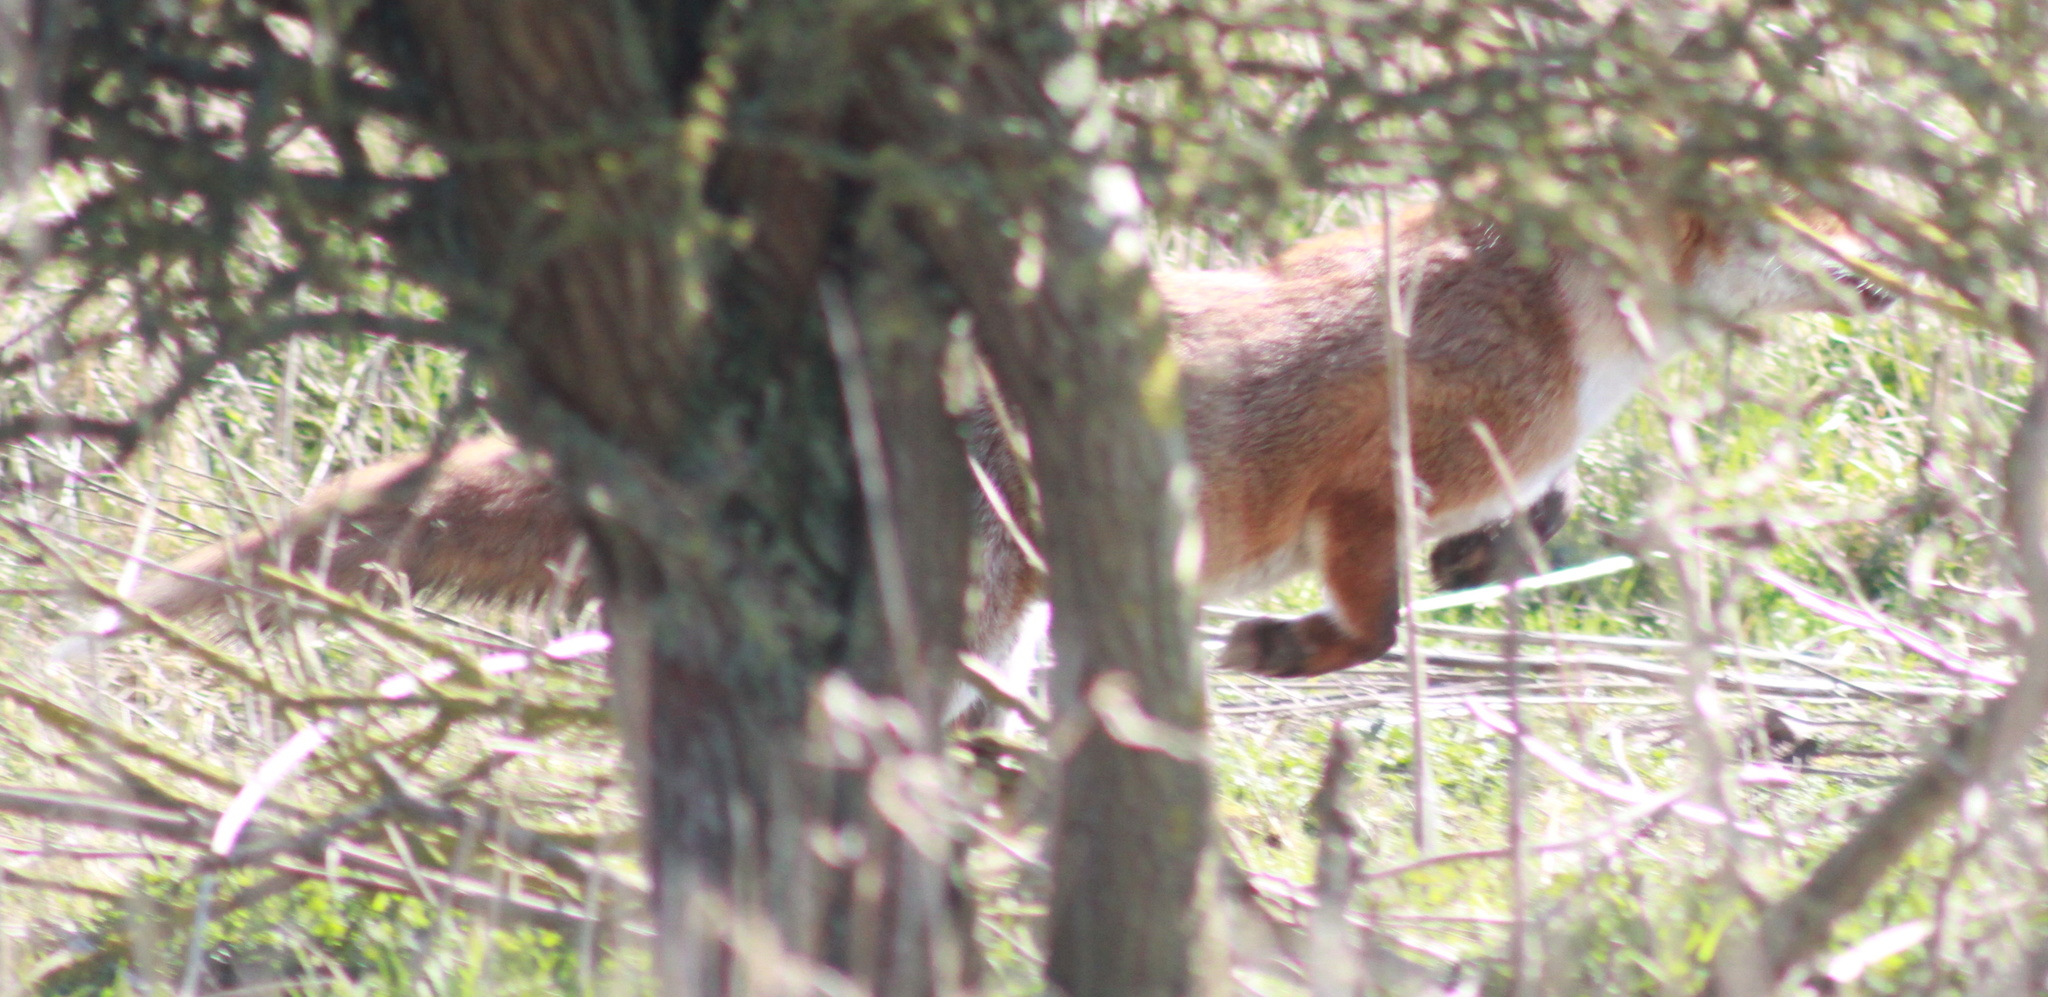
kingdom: Animalia
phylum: Chordata
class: Mammalia
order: Carnivora
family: Canidae
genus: Vulpes
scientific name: Vulpes vulpes
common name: Red fox
